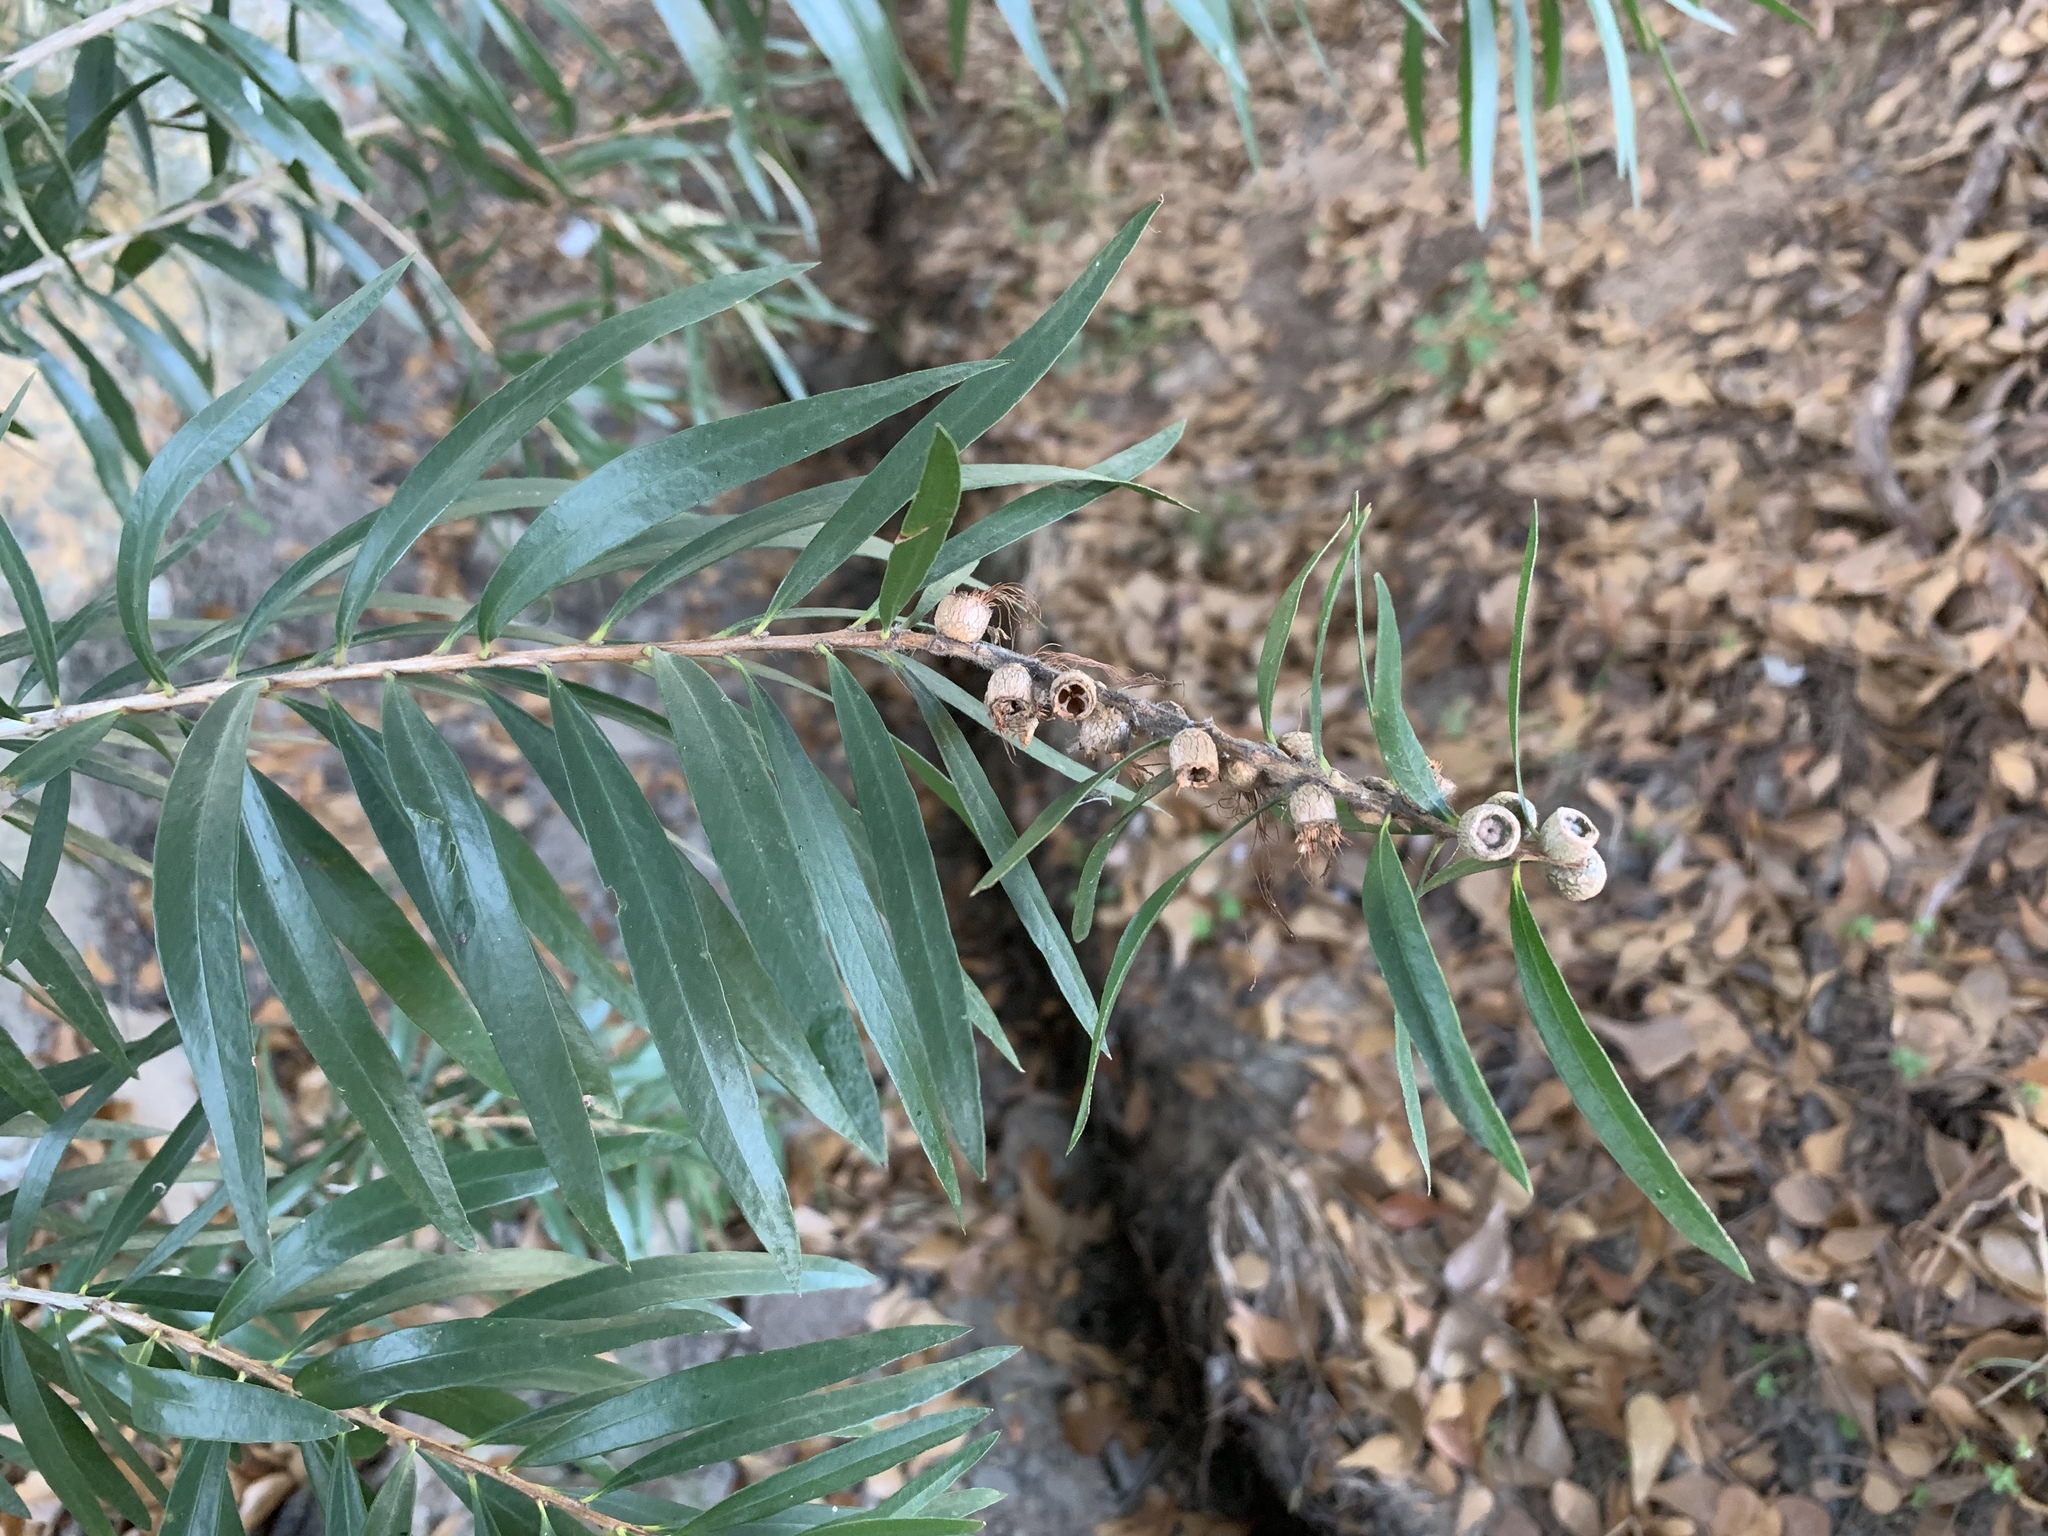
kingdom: Plantae
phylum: Tracheophyta
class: Magnoliopsida
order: Myrtales
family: Myrtaceae
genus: Callistemon
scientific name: Callistemon viminalis
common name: Drooping bottlebrush
